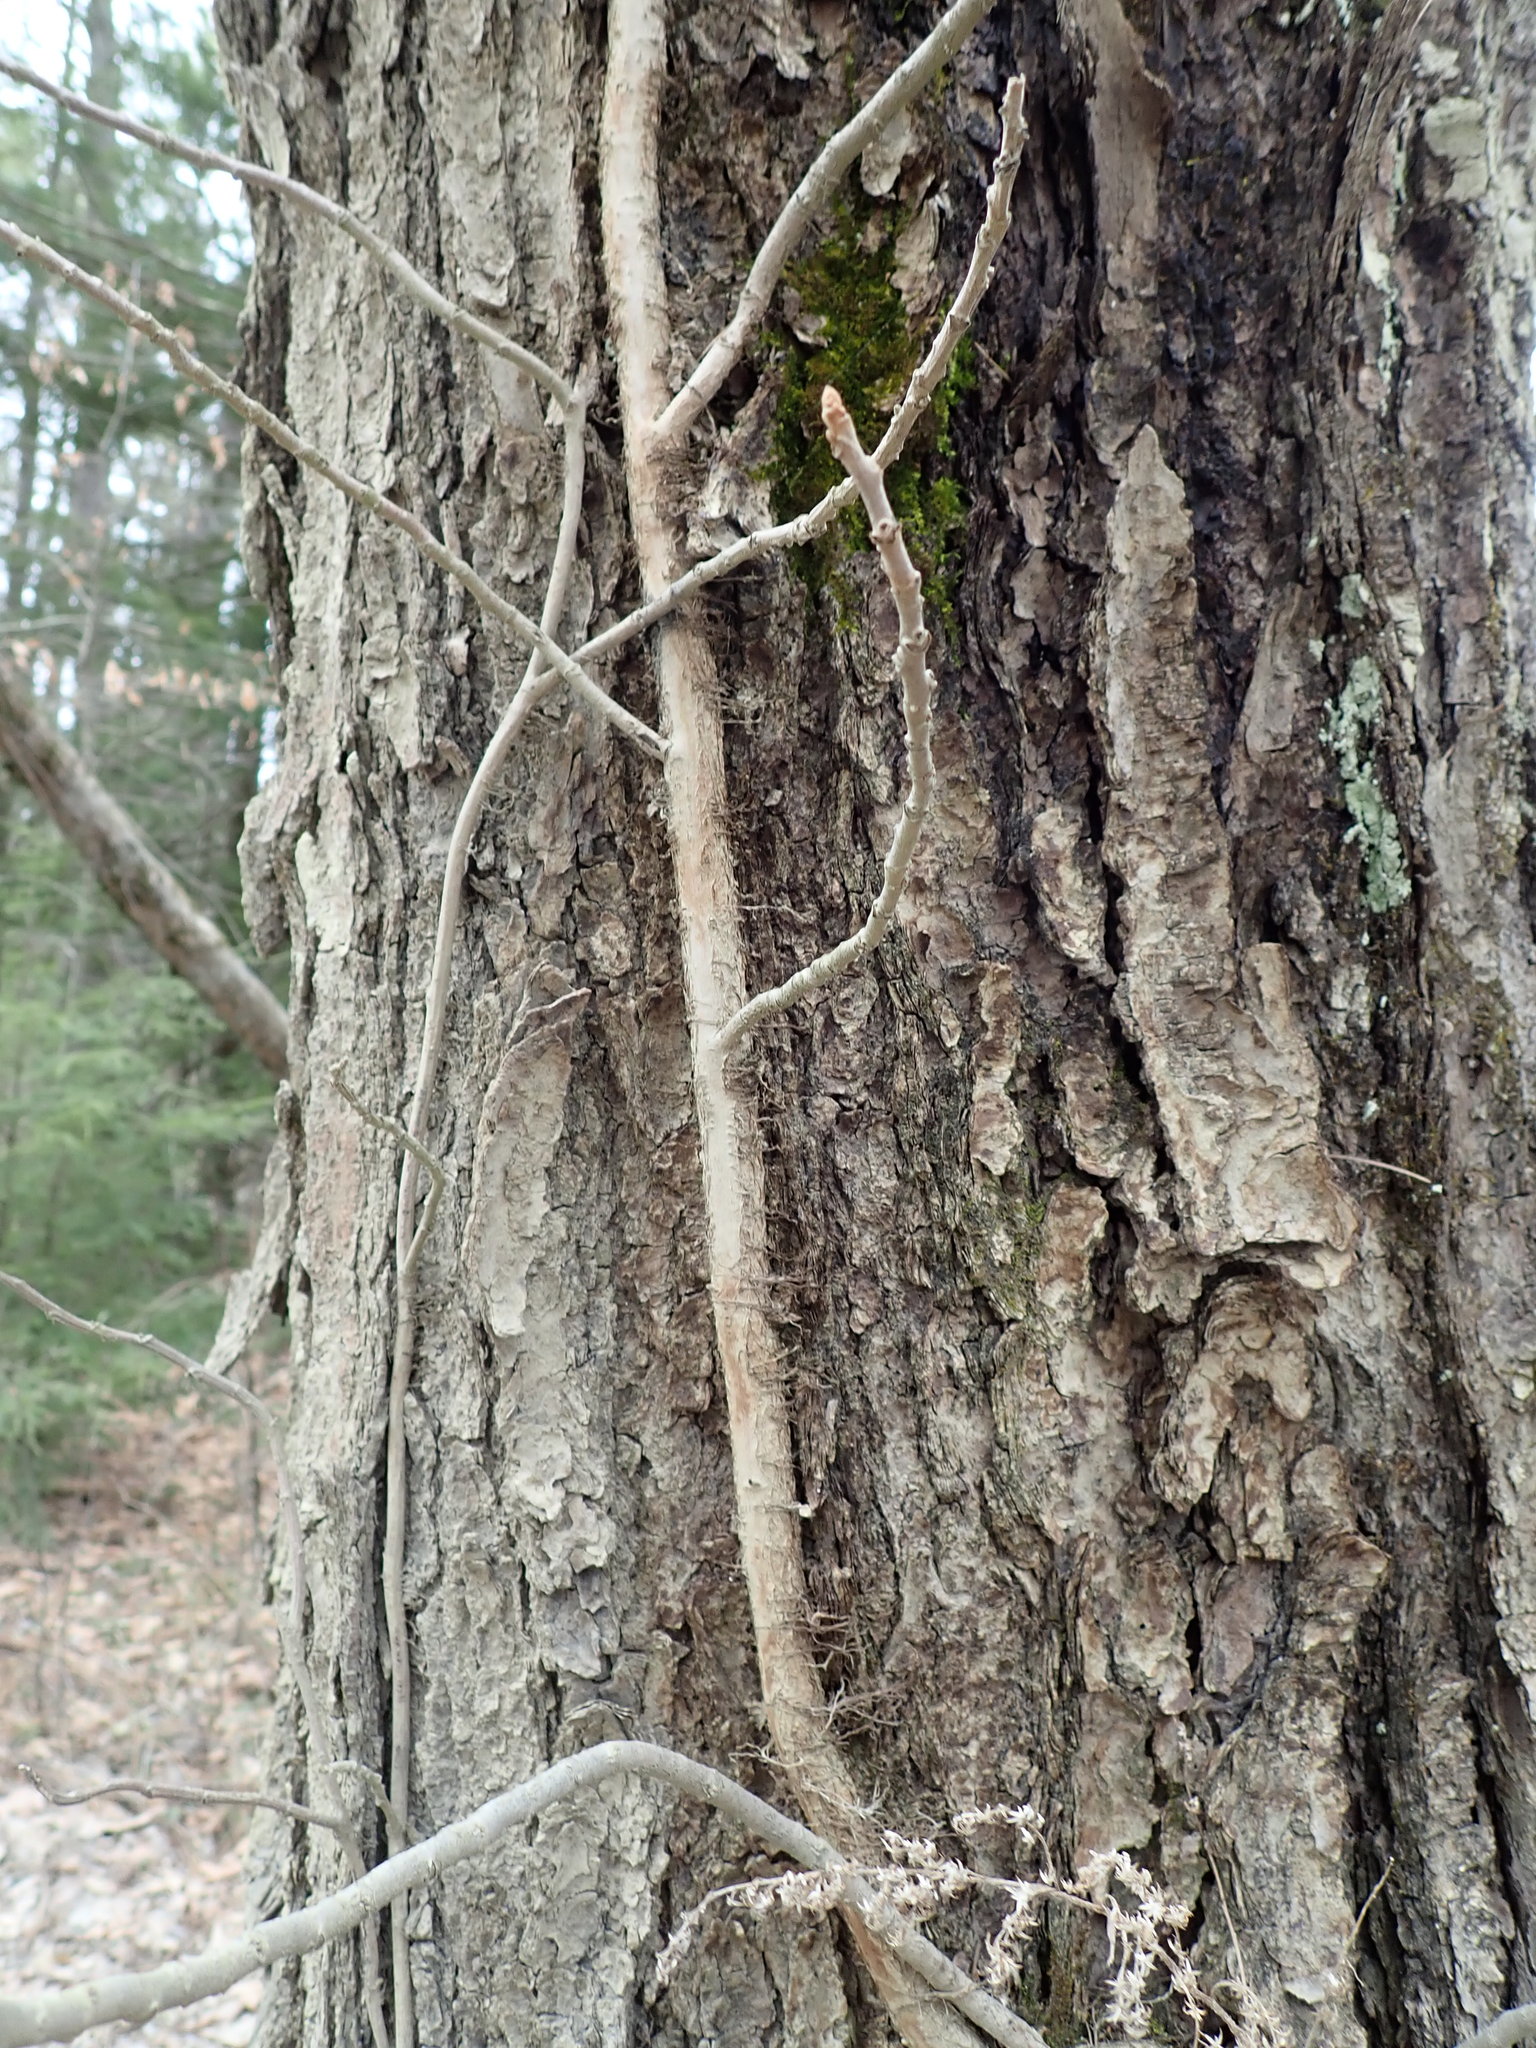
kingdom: Plantae
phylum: Tracheophyta
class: Magnoliopsida
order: Sapindales
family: Anacardiaceae
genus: Toxicodendron
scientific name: Toxicodendron radicans
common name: Poison ivy
